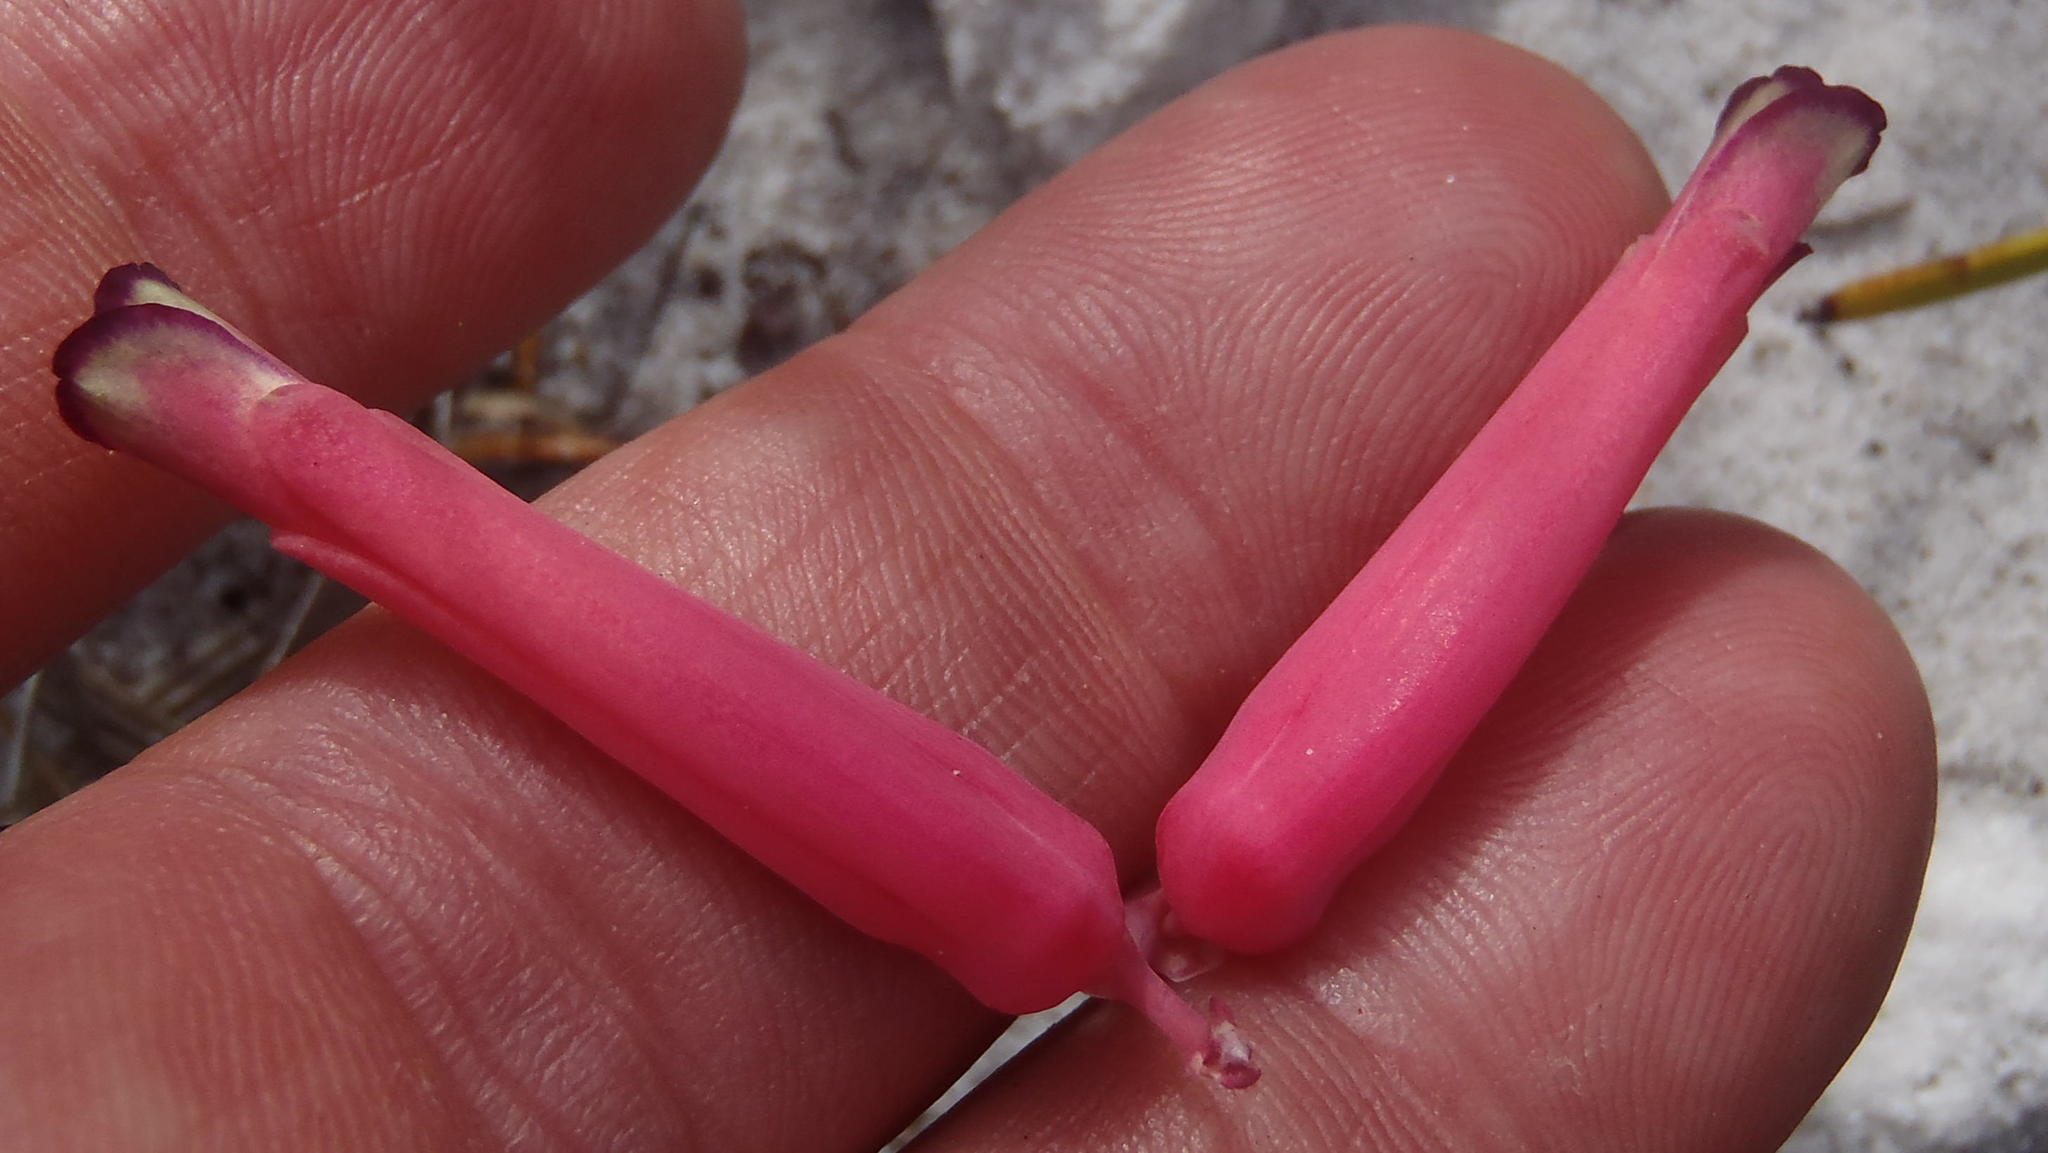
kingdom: Plantae
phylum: Tracheophyta
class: Liliopsida
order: Asparagales
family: Asparagaceae
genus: Lachenalia
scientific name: Lachenalia punctata
